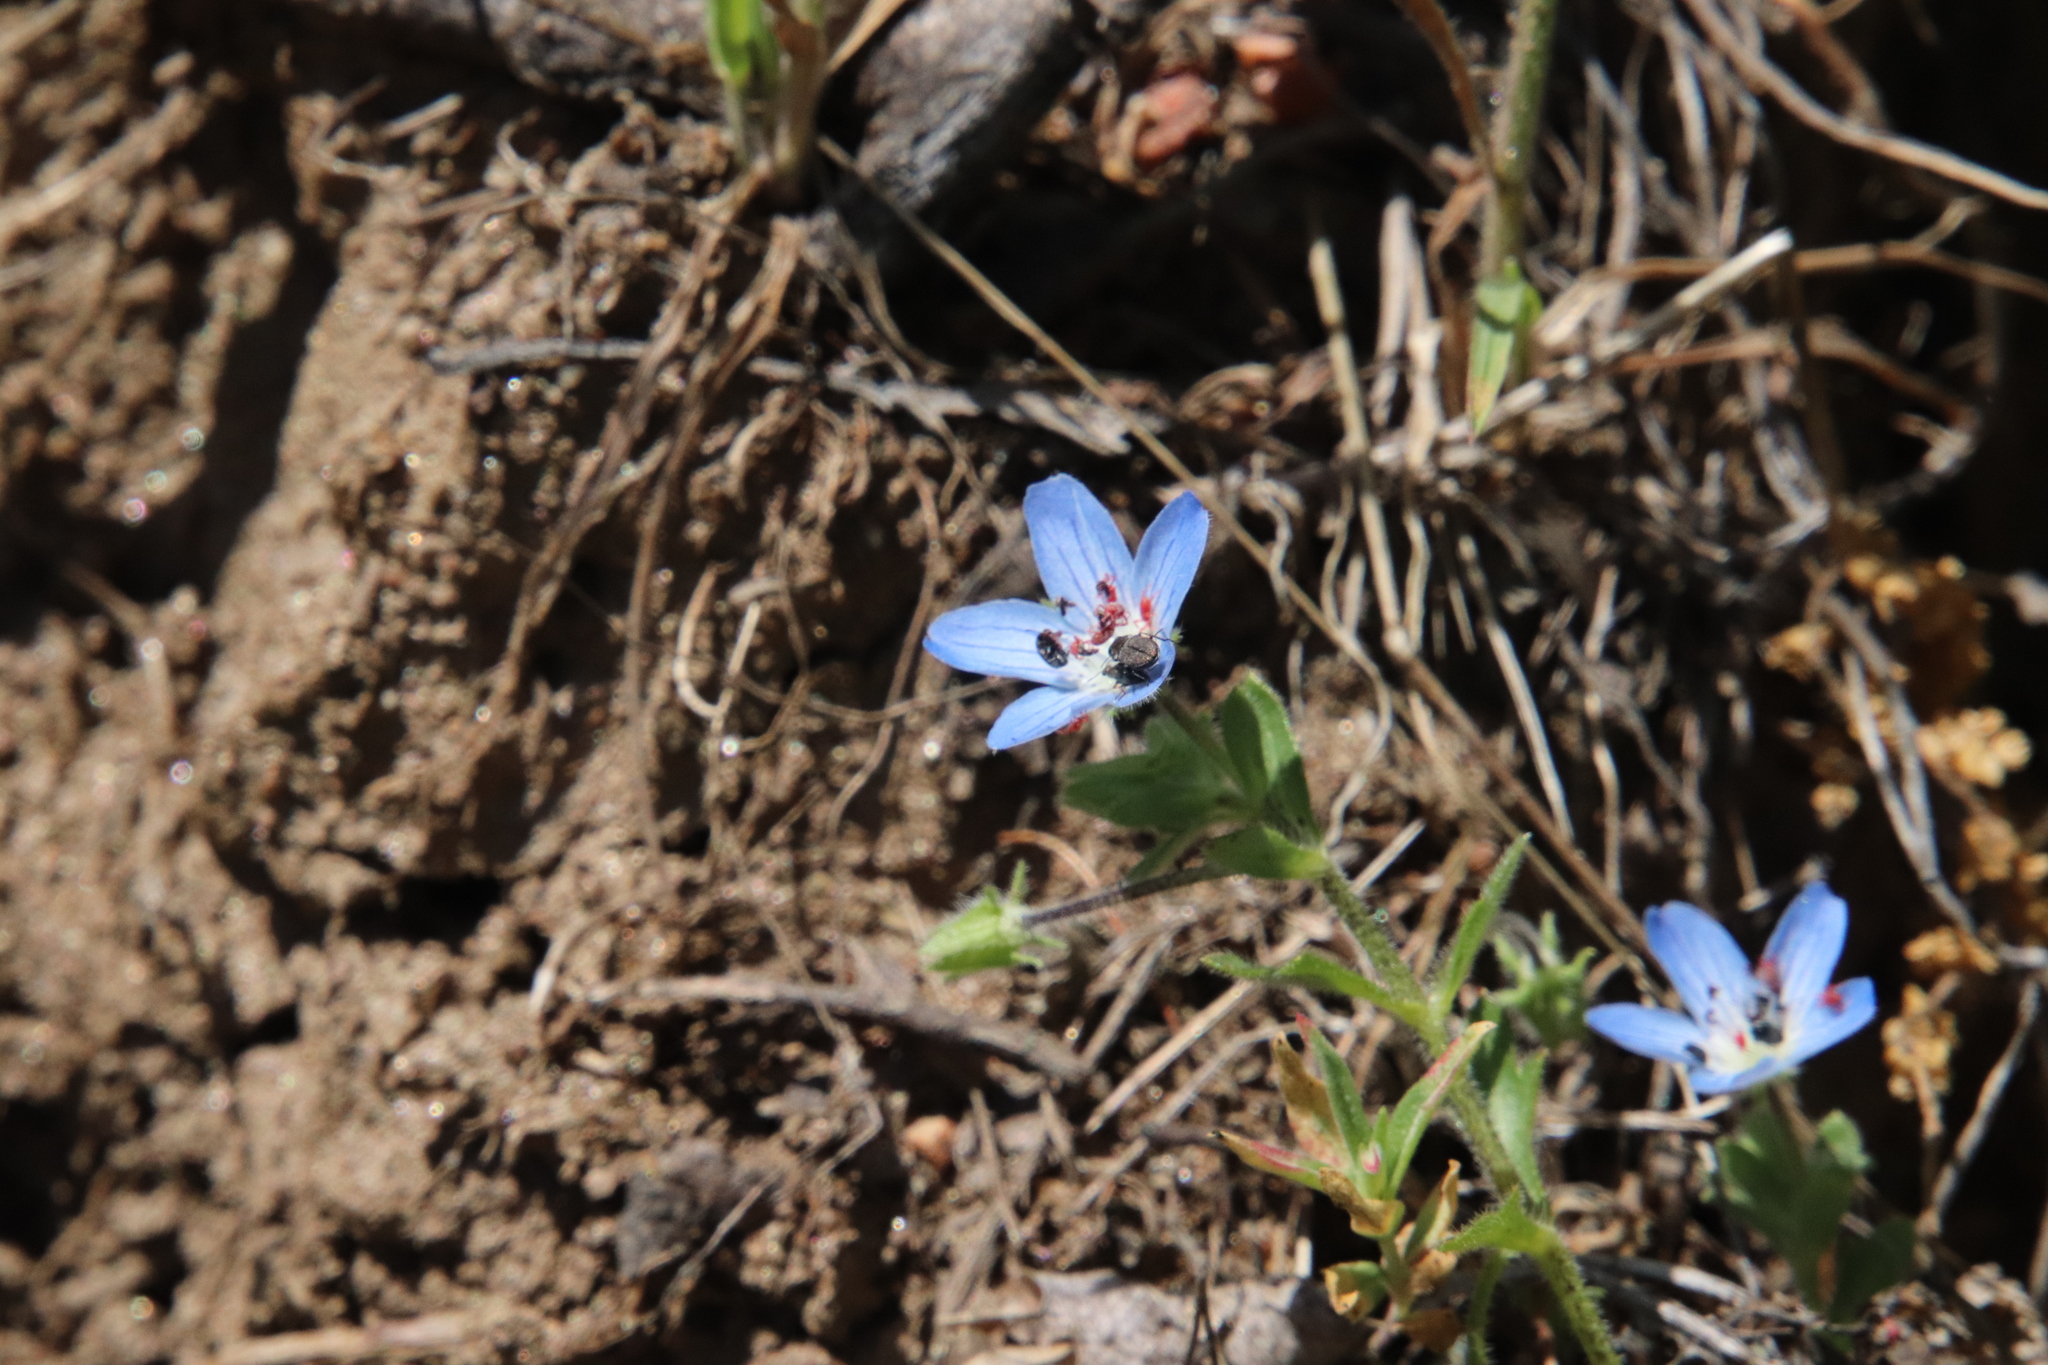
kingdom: Plantae
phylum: Tracheophyta
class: Magnoliopsida
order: Boraginales
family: Hydrophyllaceae
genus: Nemophila
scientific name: Nemophila menziesii
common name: Baby's-blue-eyes
